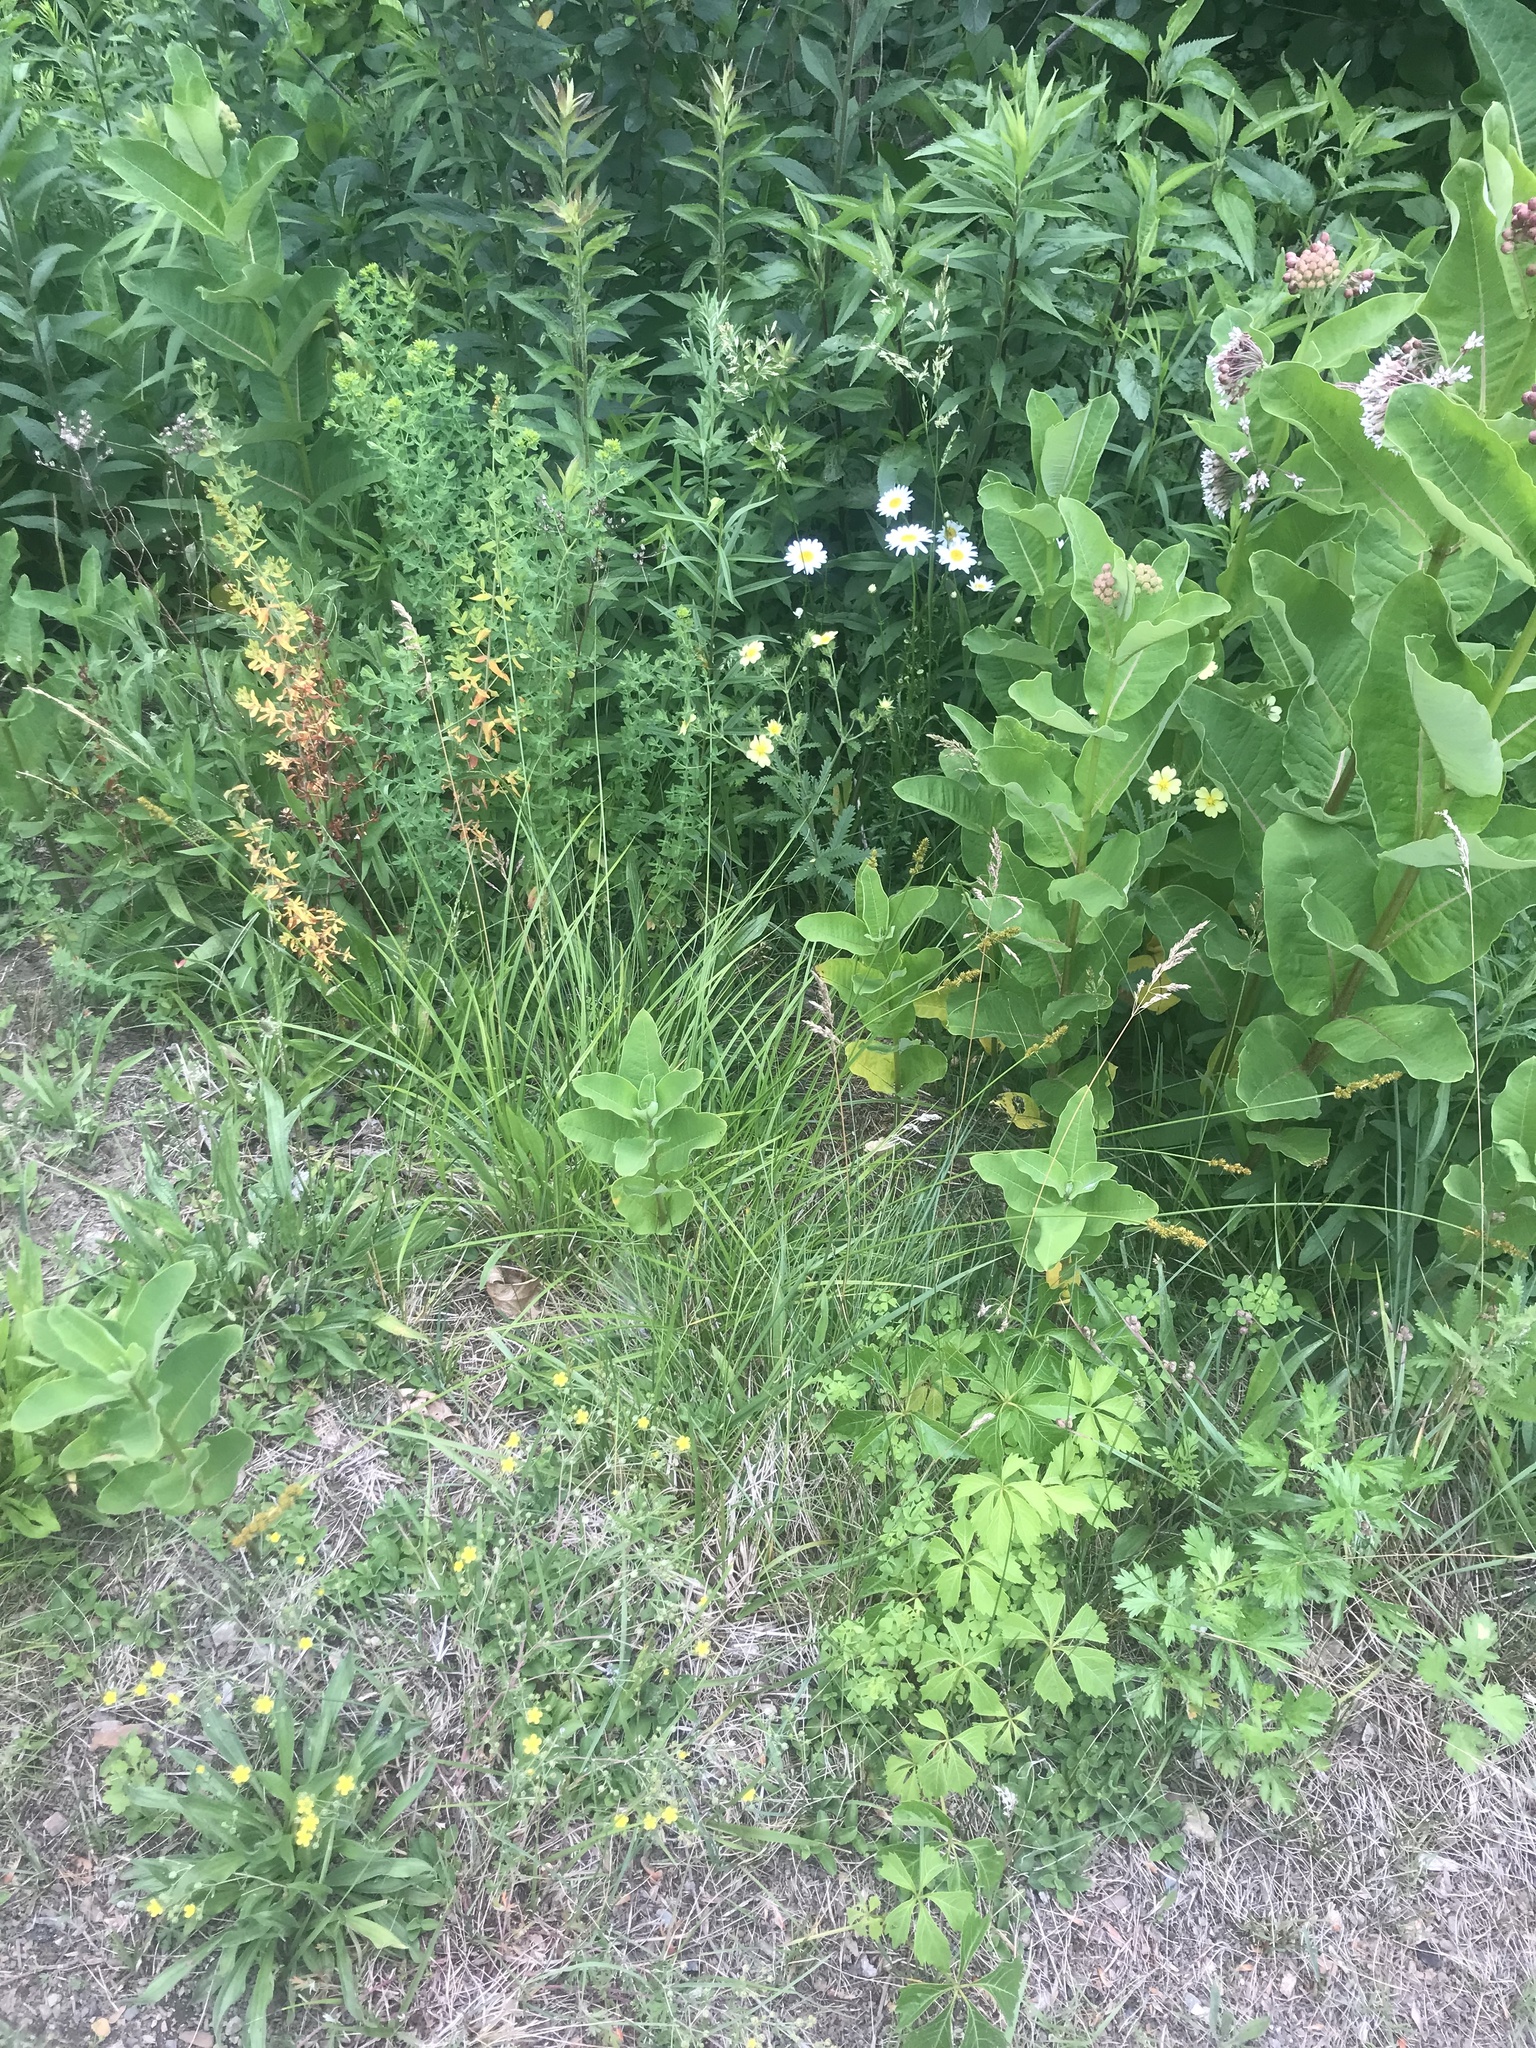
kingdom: Plantae
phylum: Tracheophyta
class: Magnoliopsida
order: Gentianales
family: Apocynaceae
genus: Asclepias
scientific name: Asclepias syriaca
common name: Common milkweed
